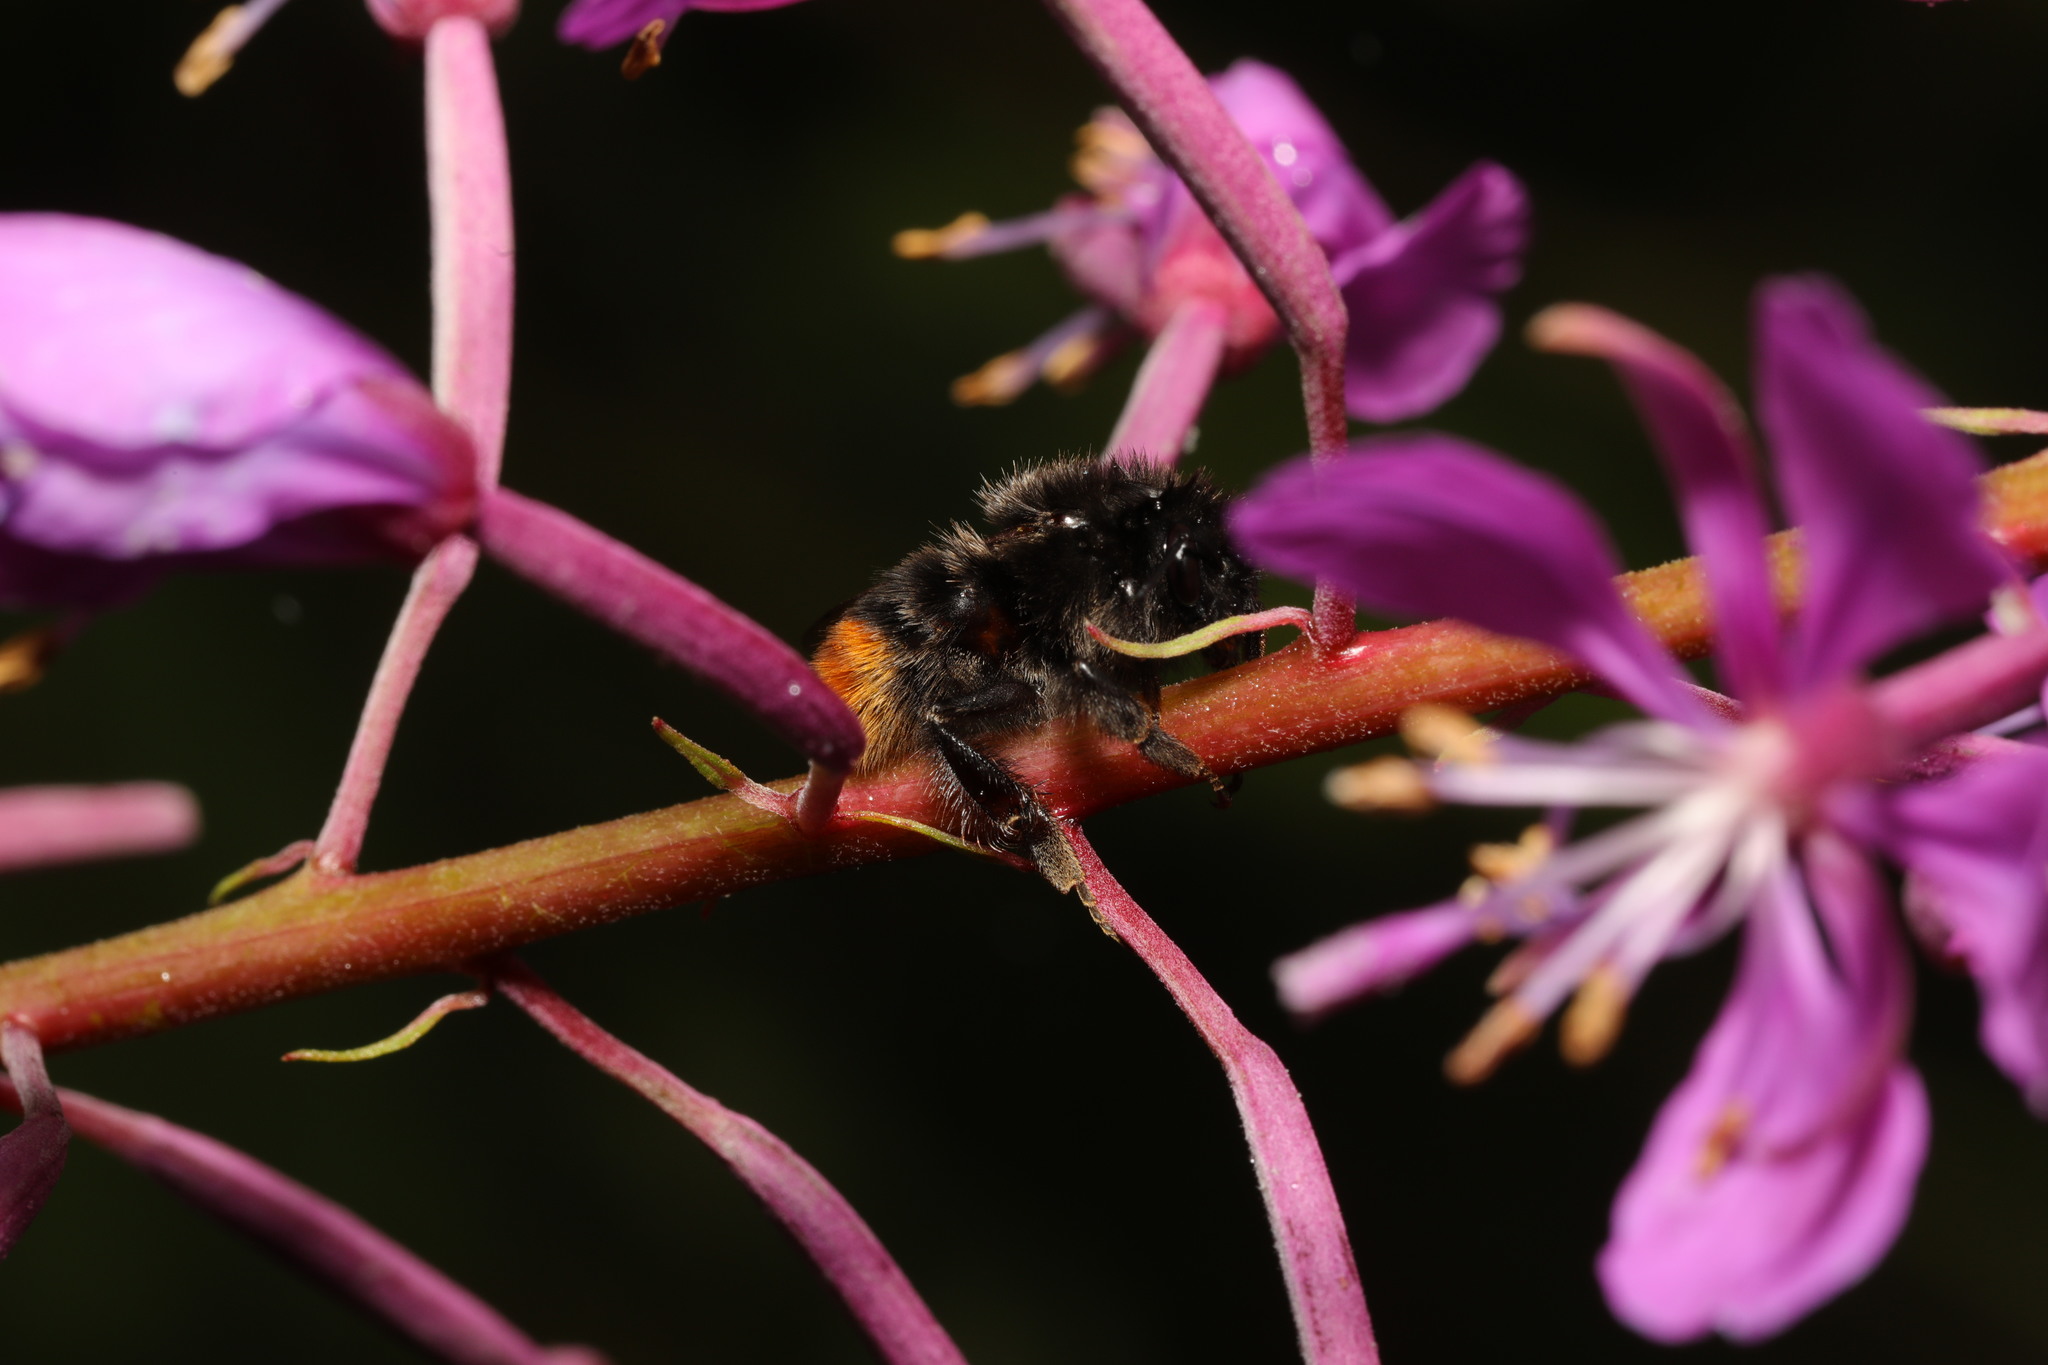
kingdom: Animalia
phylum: Arthropoda
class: Insecta
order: Hymenoptera
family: Apidae
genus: Bombus
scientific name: Bombus lapidarius
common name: Large red-tailed humble-bee
